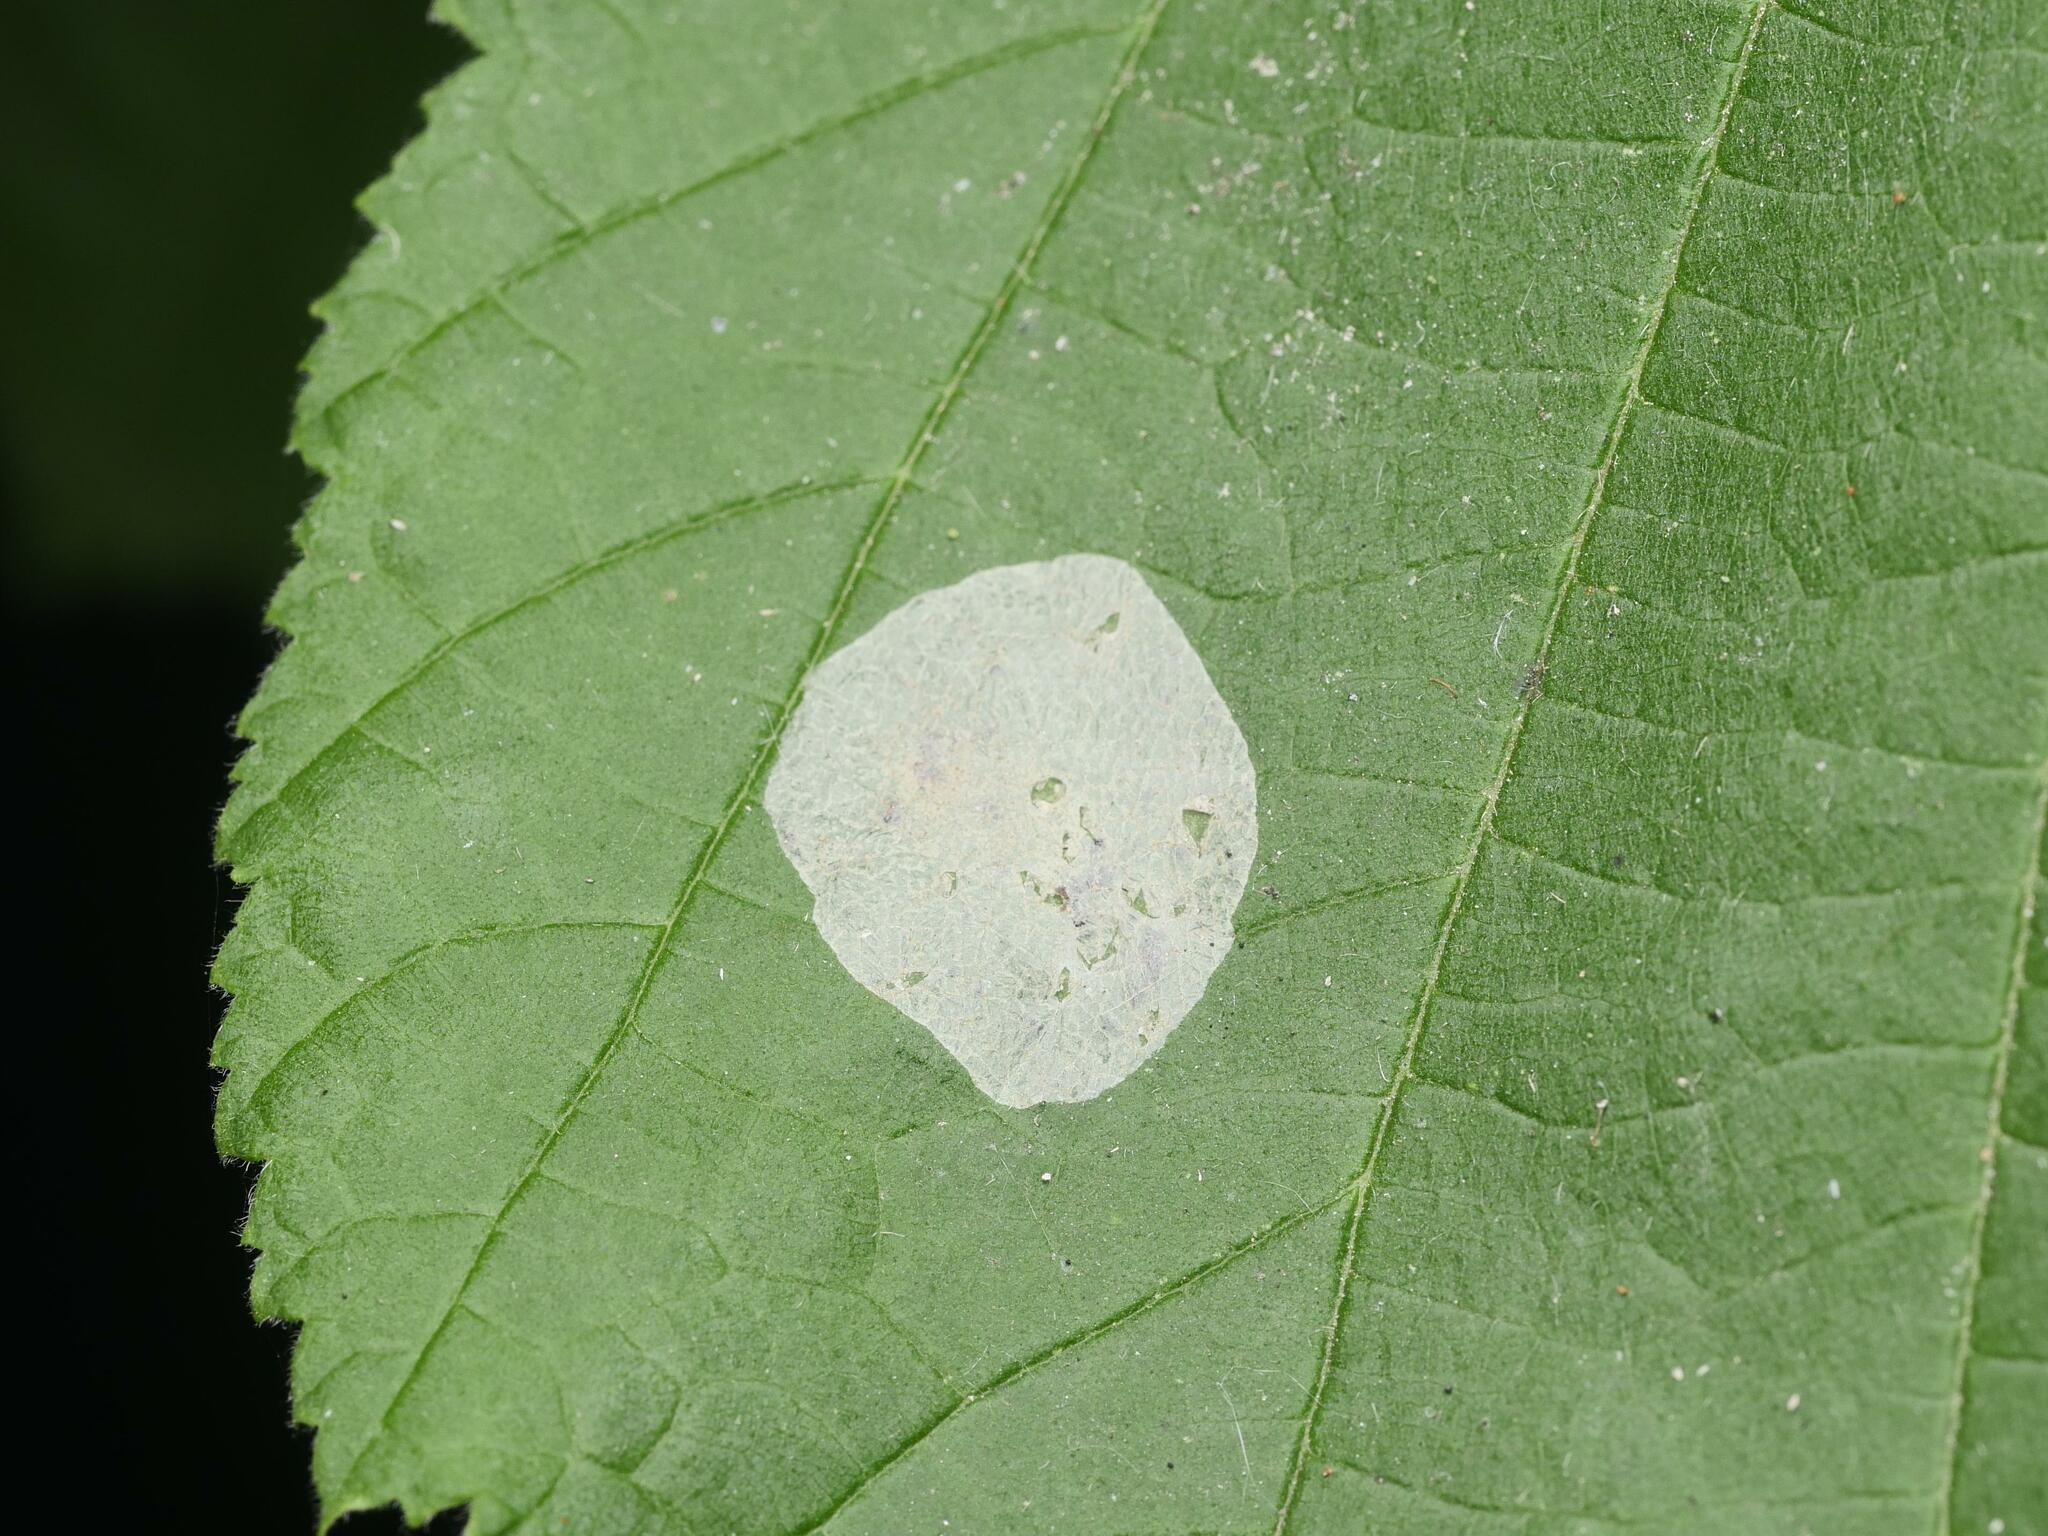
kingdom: Animalia
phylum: Arthropoda
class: Insecta
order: Lepidoptera
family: Gracillariidae
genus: Phyllonorycter
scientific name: Phyllonorycter coryli
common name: Nut-leaf blister moth
